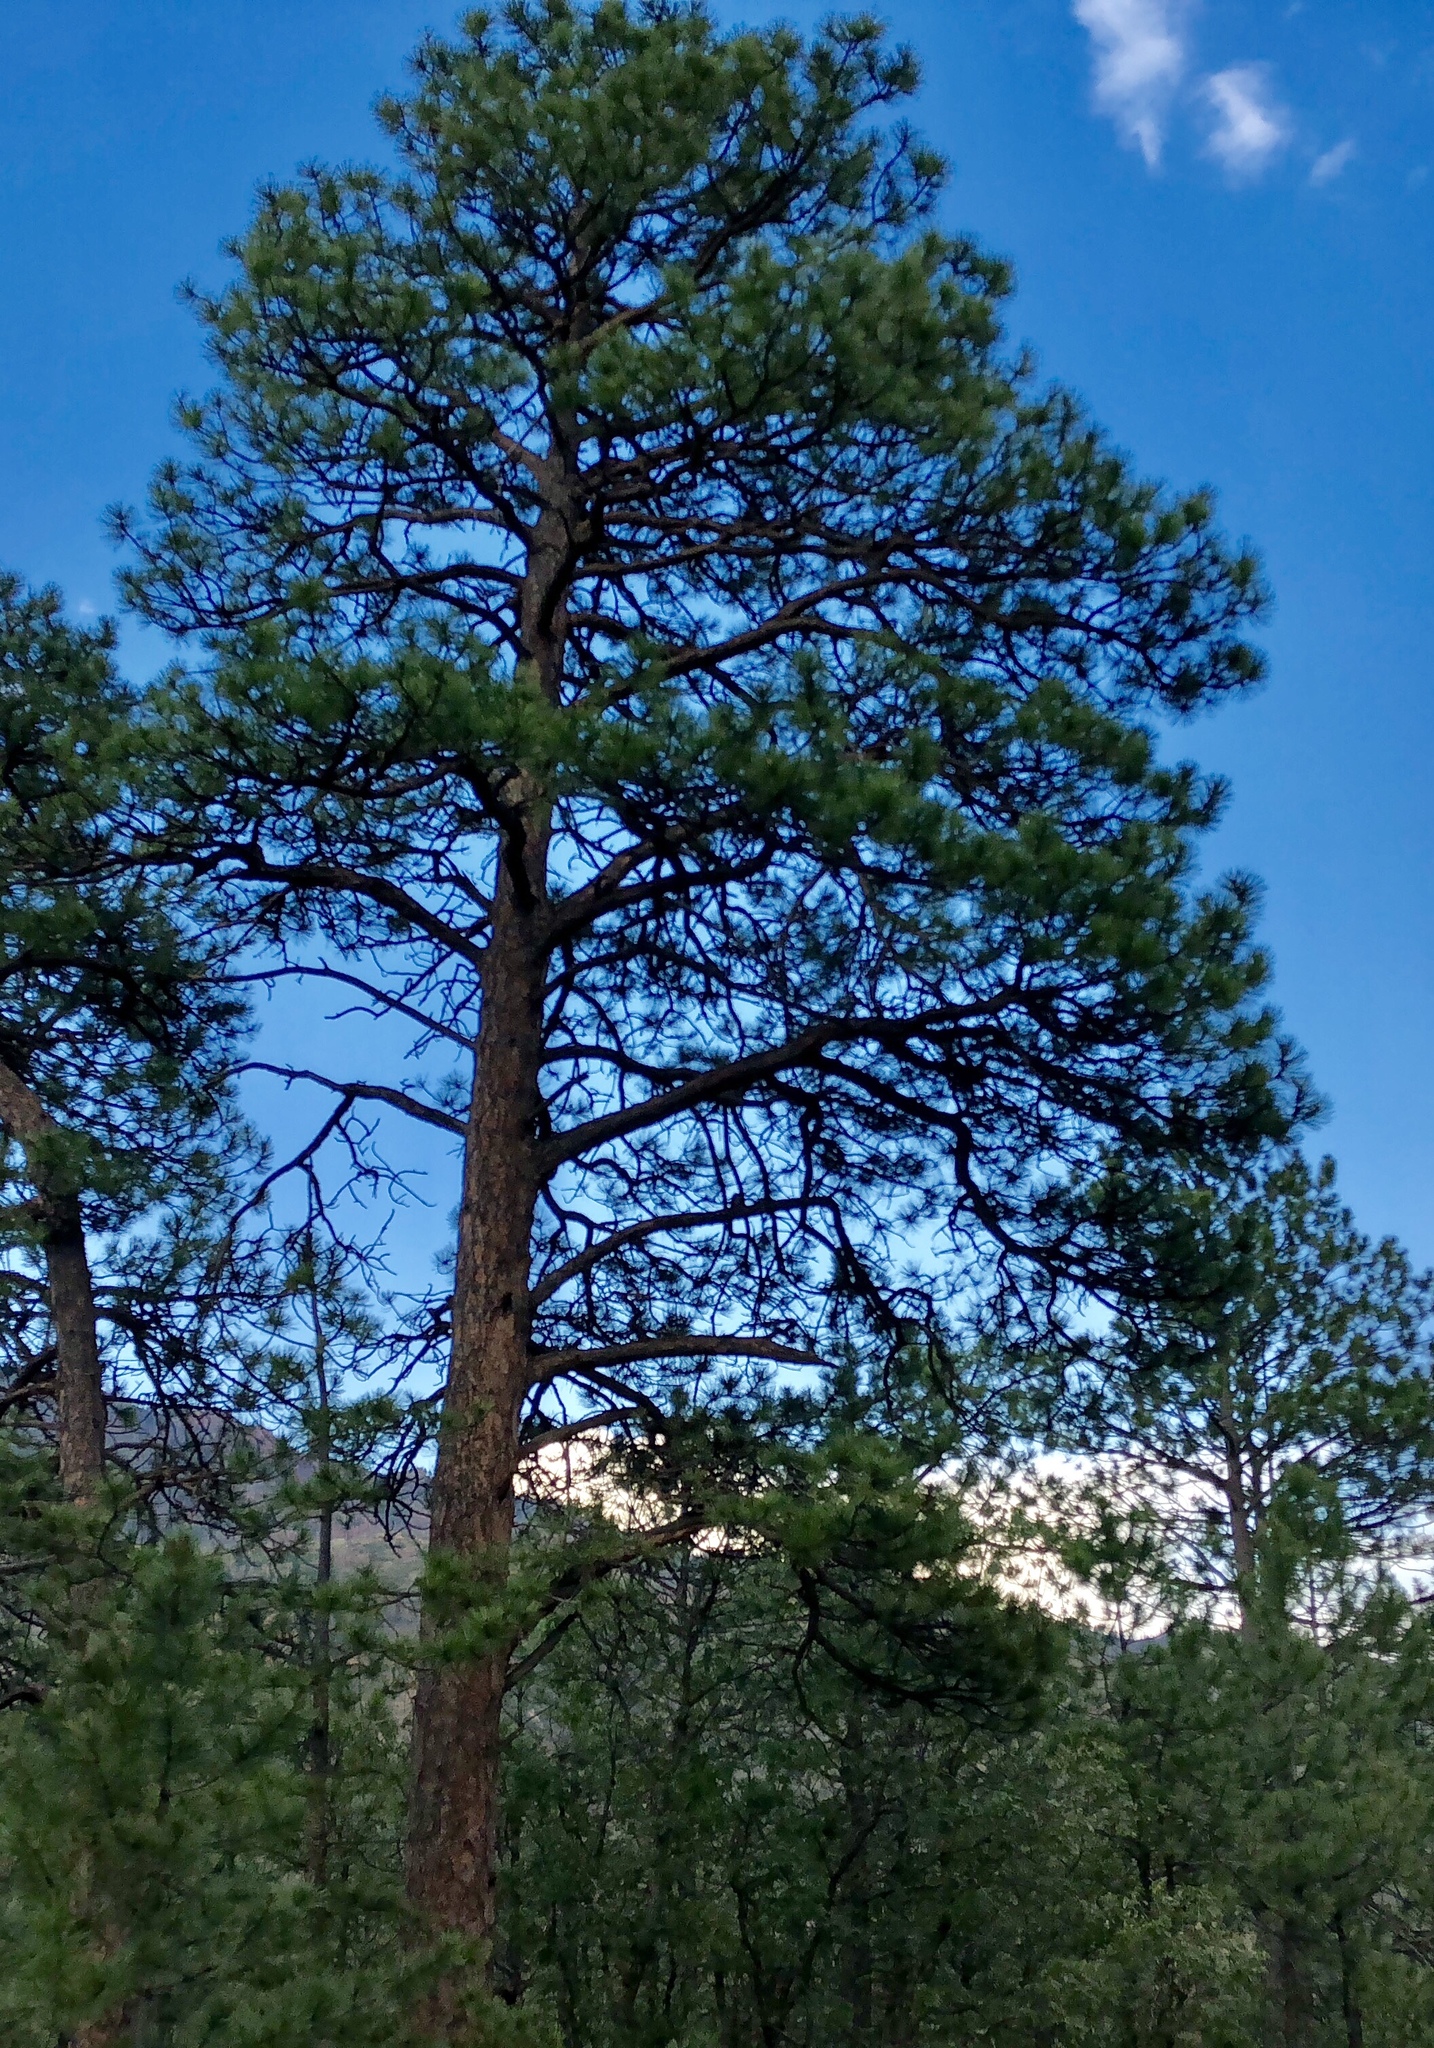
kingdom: Plantae
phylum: Tracheophyta
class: Pinopsida
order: Pinales
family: Pinaceae
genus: Pinus
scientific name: Pinus ponderosa
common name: Western yellow-pine
